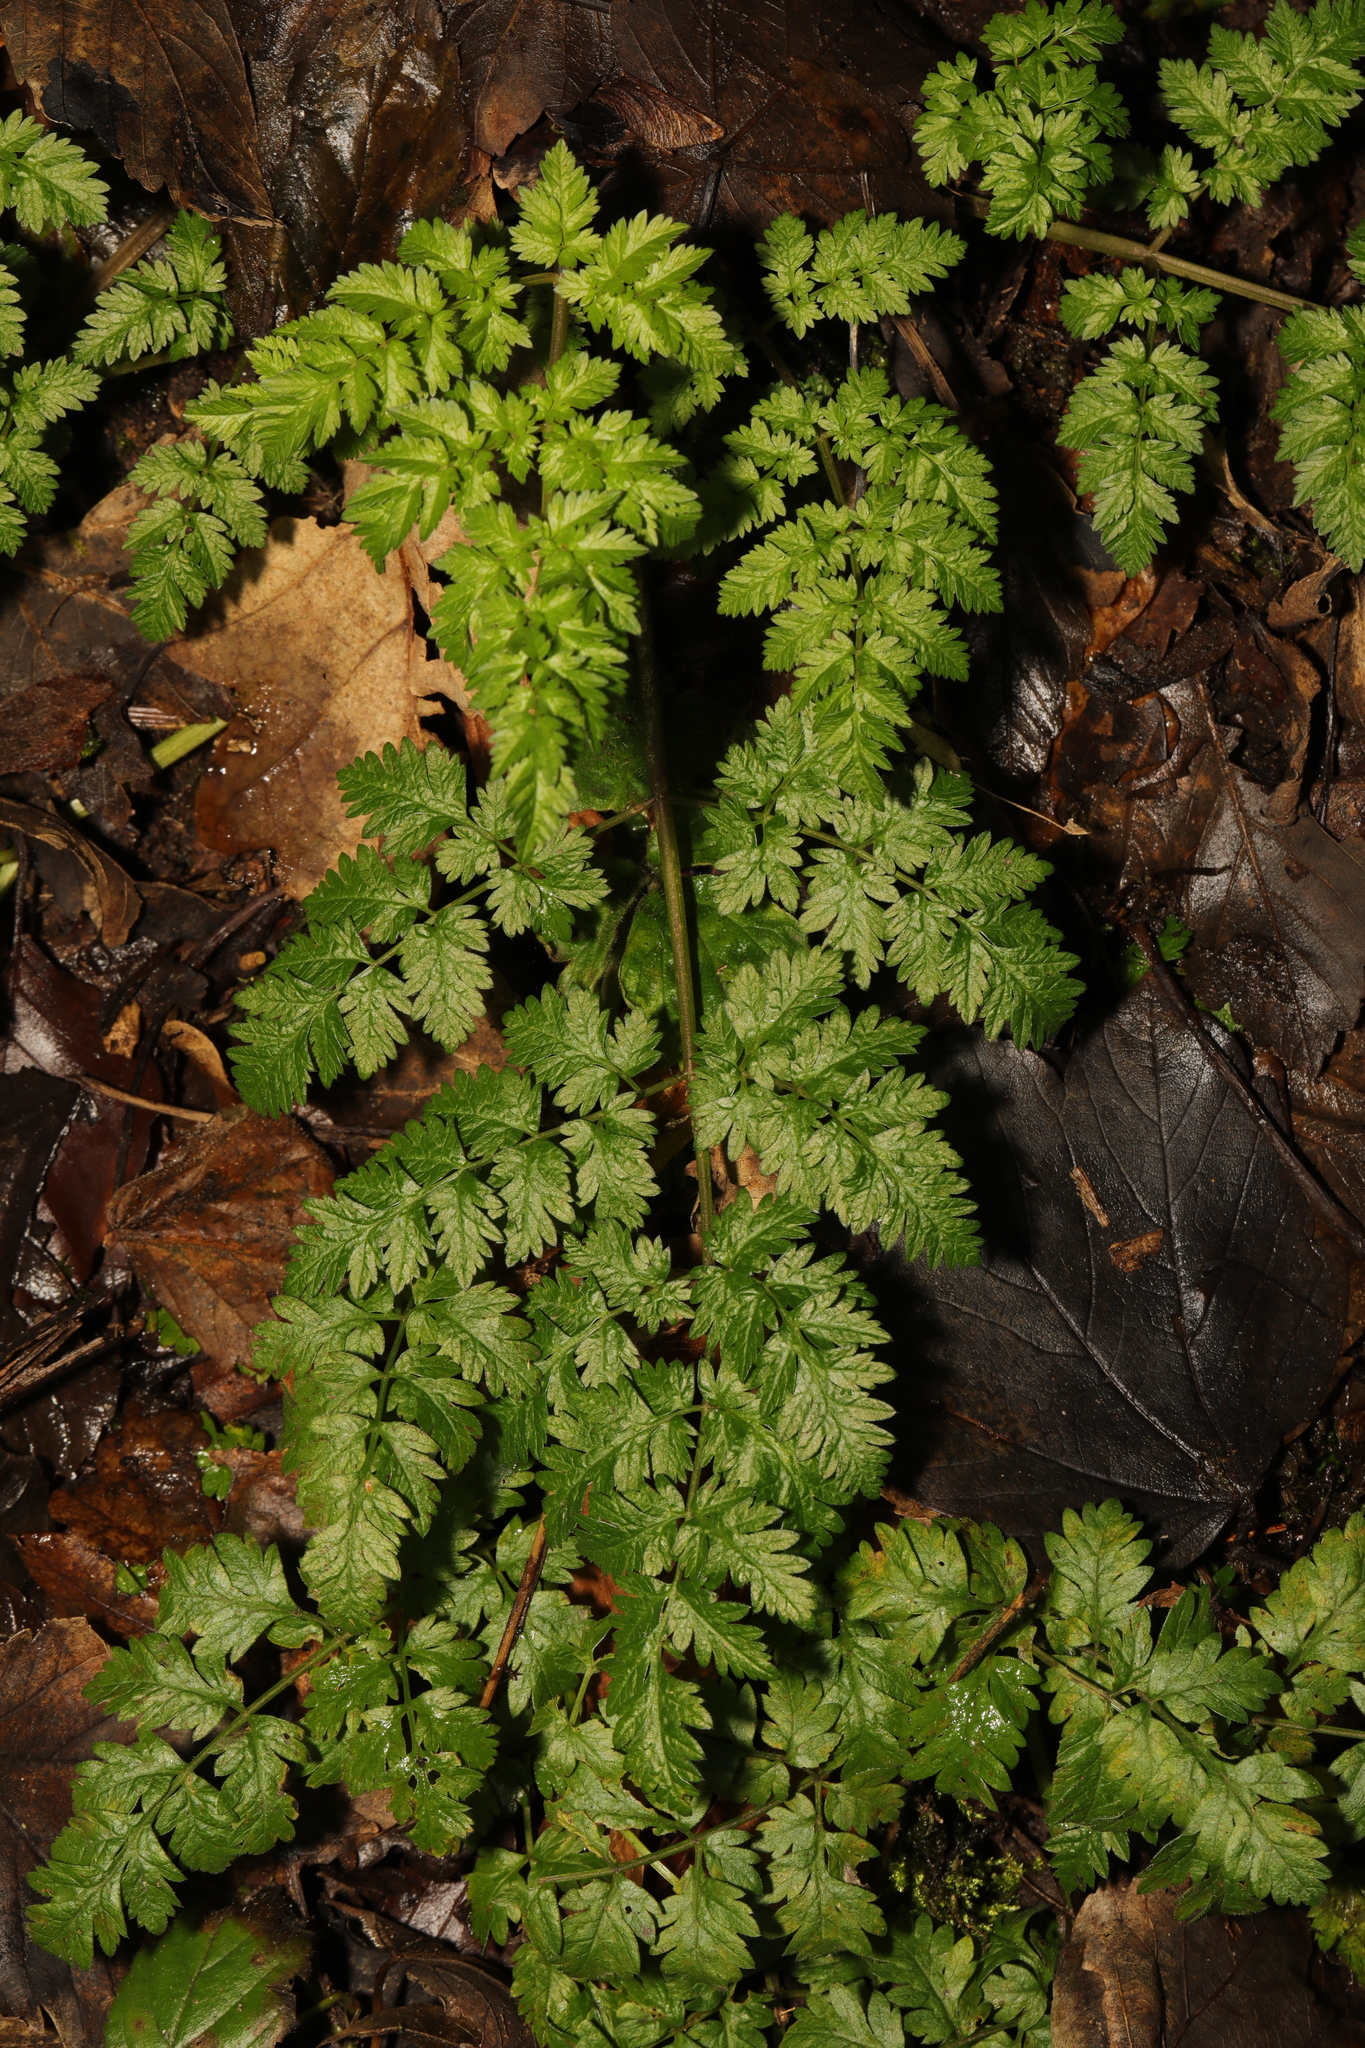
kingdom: Plantae
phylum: Tracheophyta
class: Magnoliopsida
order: Apiales
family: Apiaceae
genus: Anthriscus
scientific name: Anthriscus sylvestris
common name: Cow parsley
